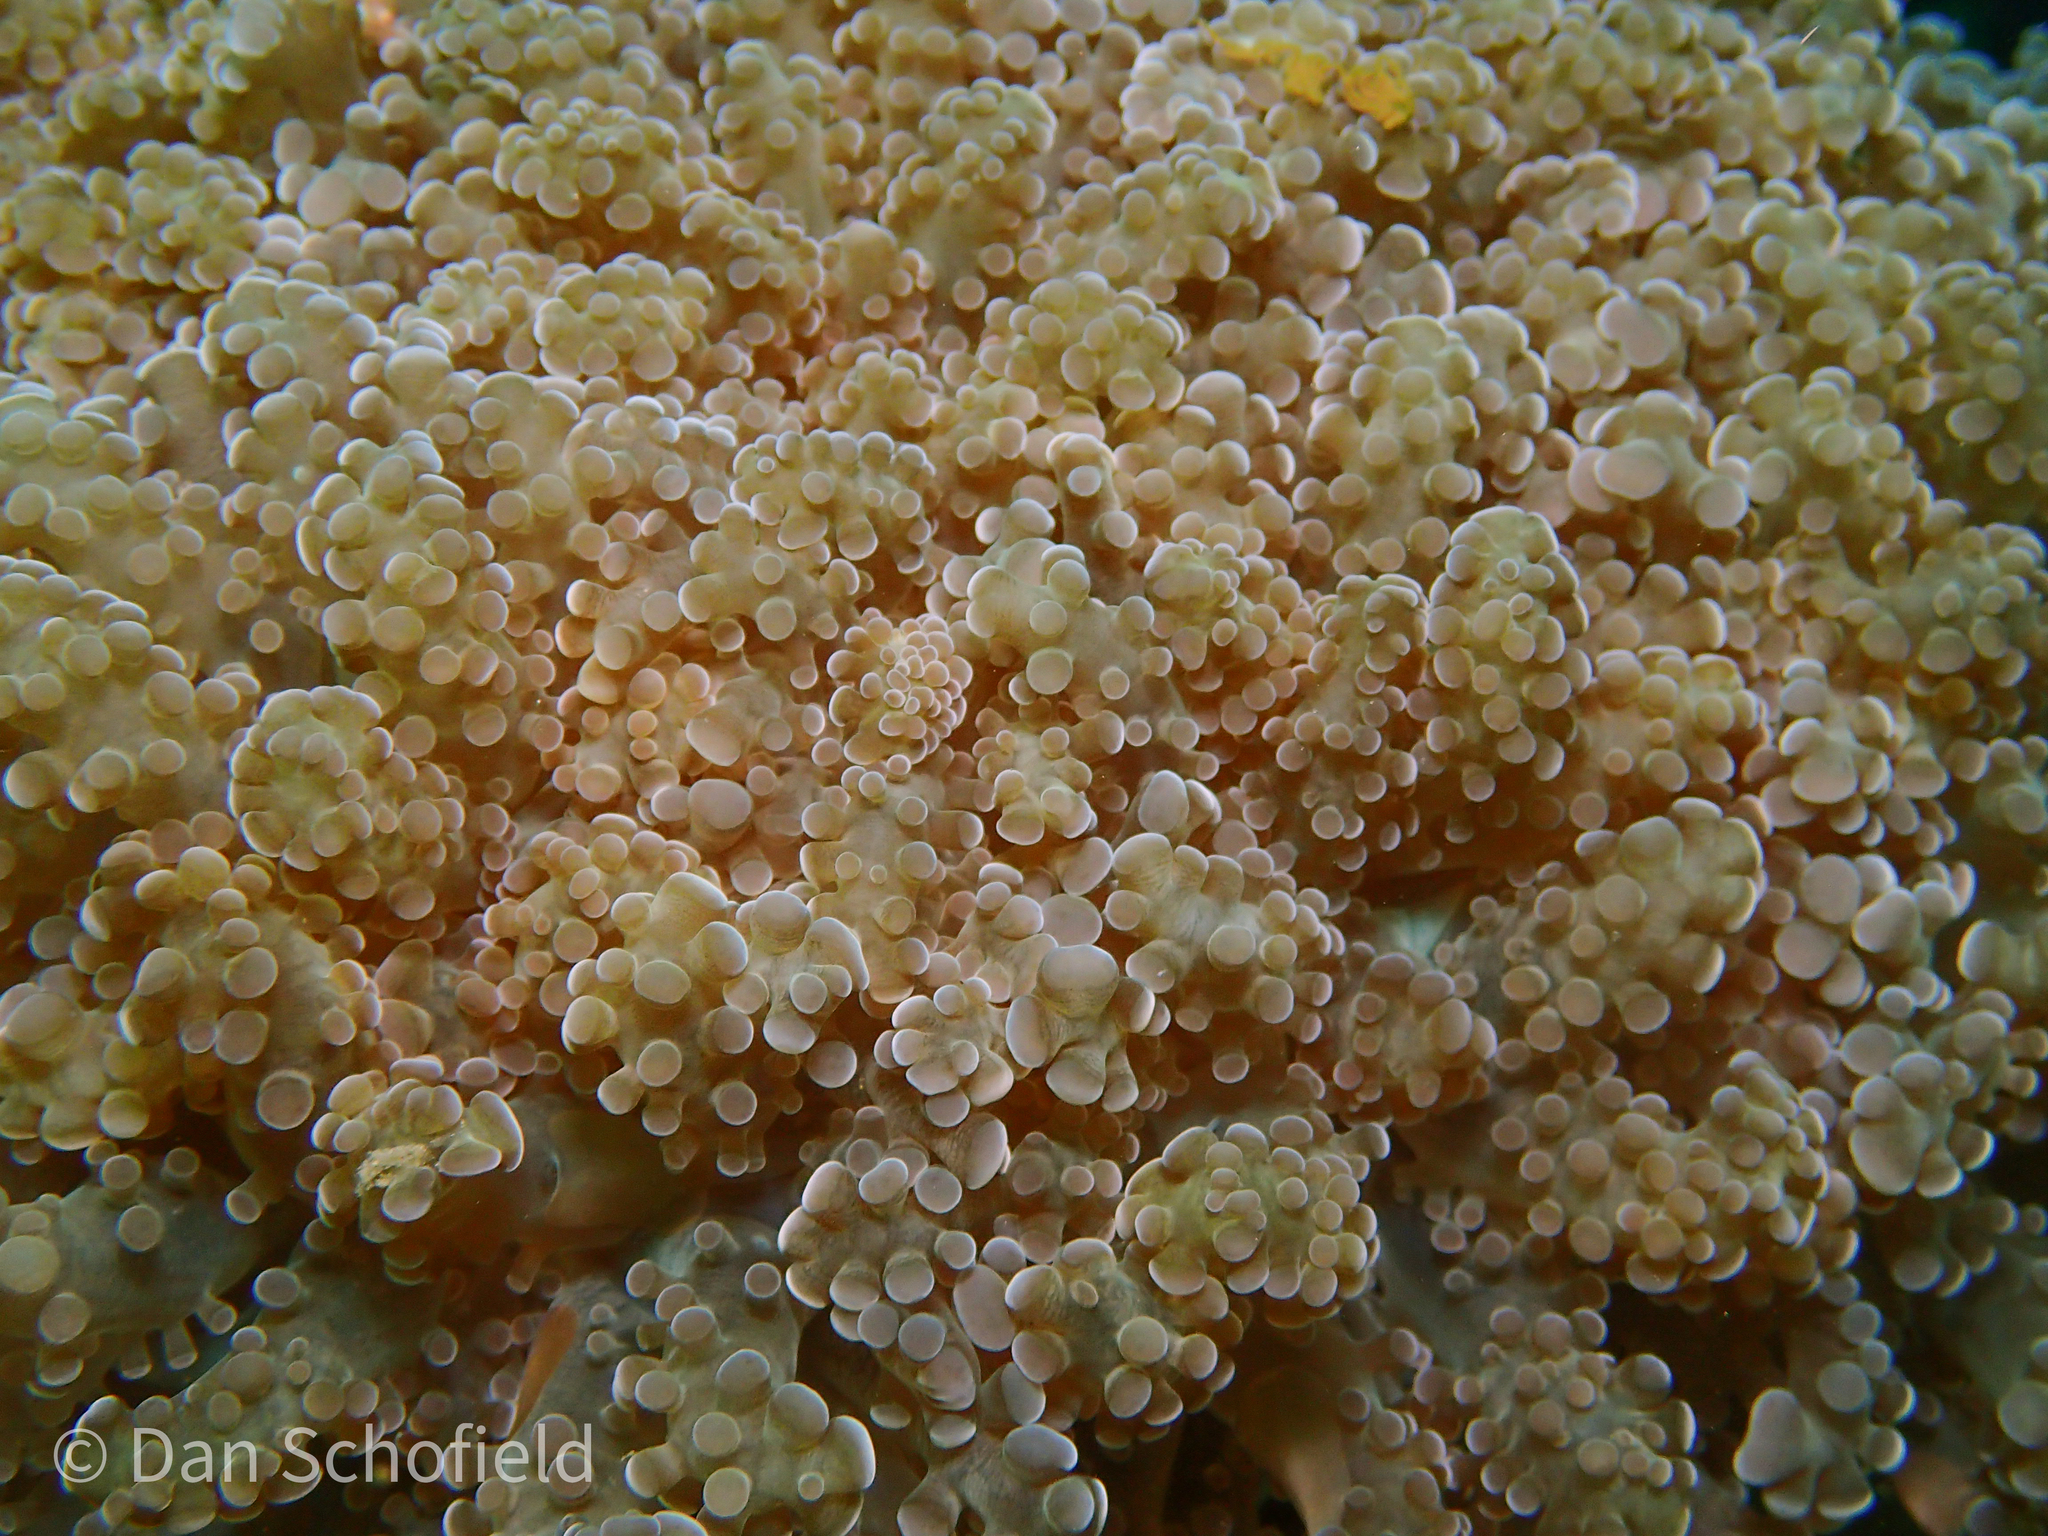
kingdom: Animalia
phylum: Cnidaria
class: Anthozoa
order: Scleractinia
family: Euphylliidae
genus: Fimbriaphyllia
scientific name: Fimbriaphyllia yaeyamaensis
